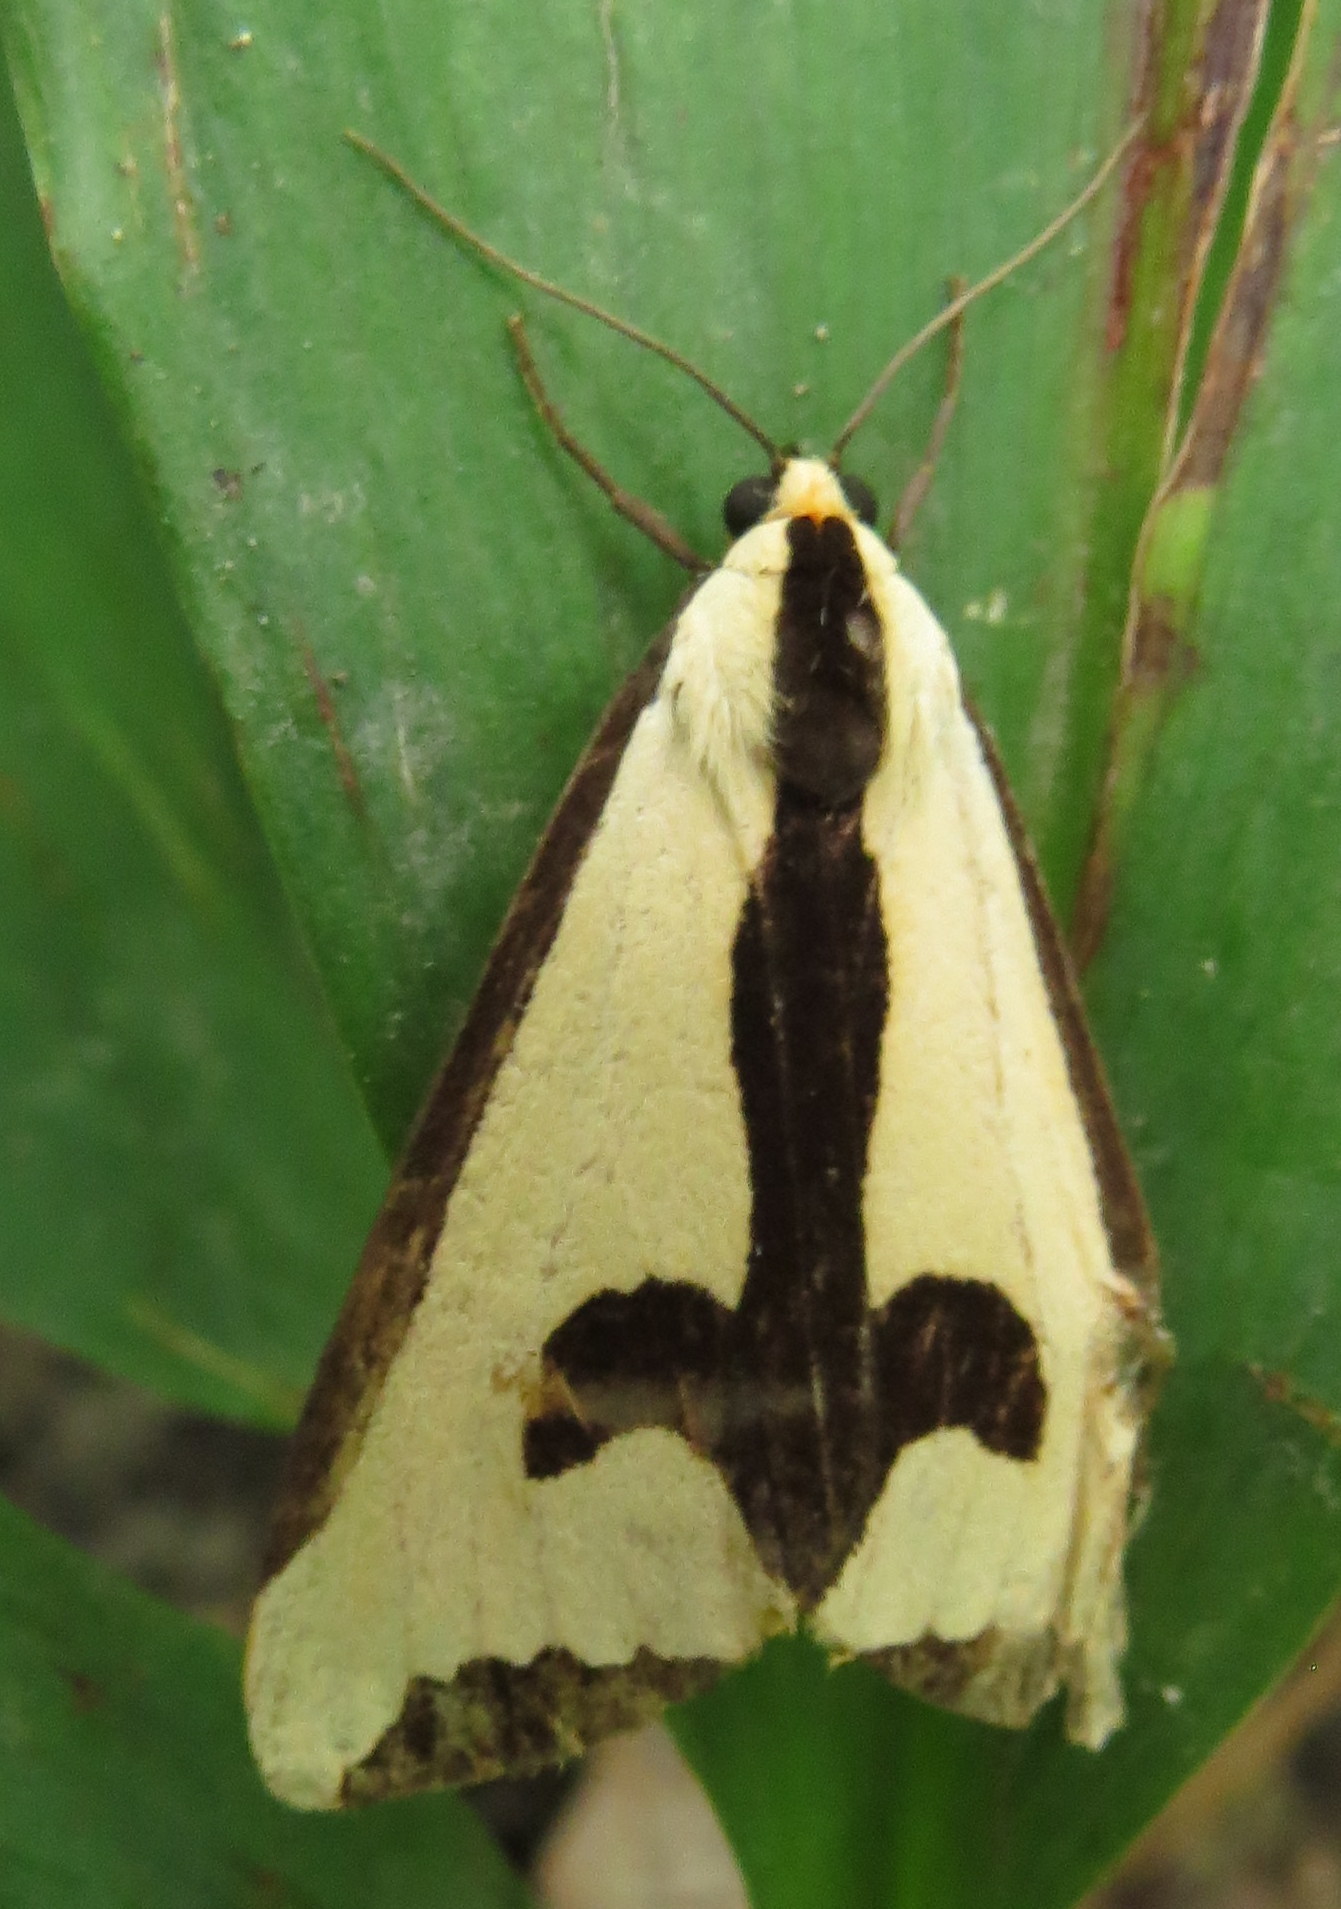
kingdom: Animalia
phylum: Arthropoda
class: Insecta
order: Lepidoptera
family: Erebidae
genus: Haploa
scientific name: Haploa clymene
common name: Clymene moth
